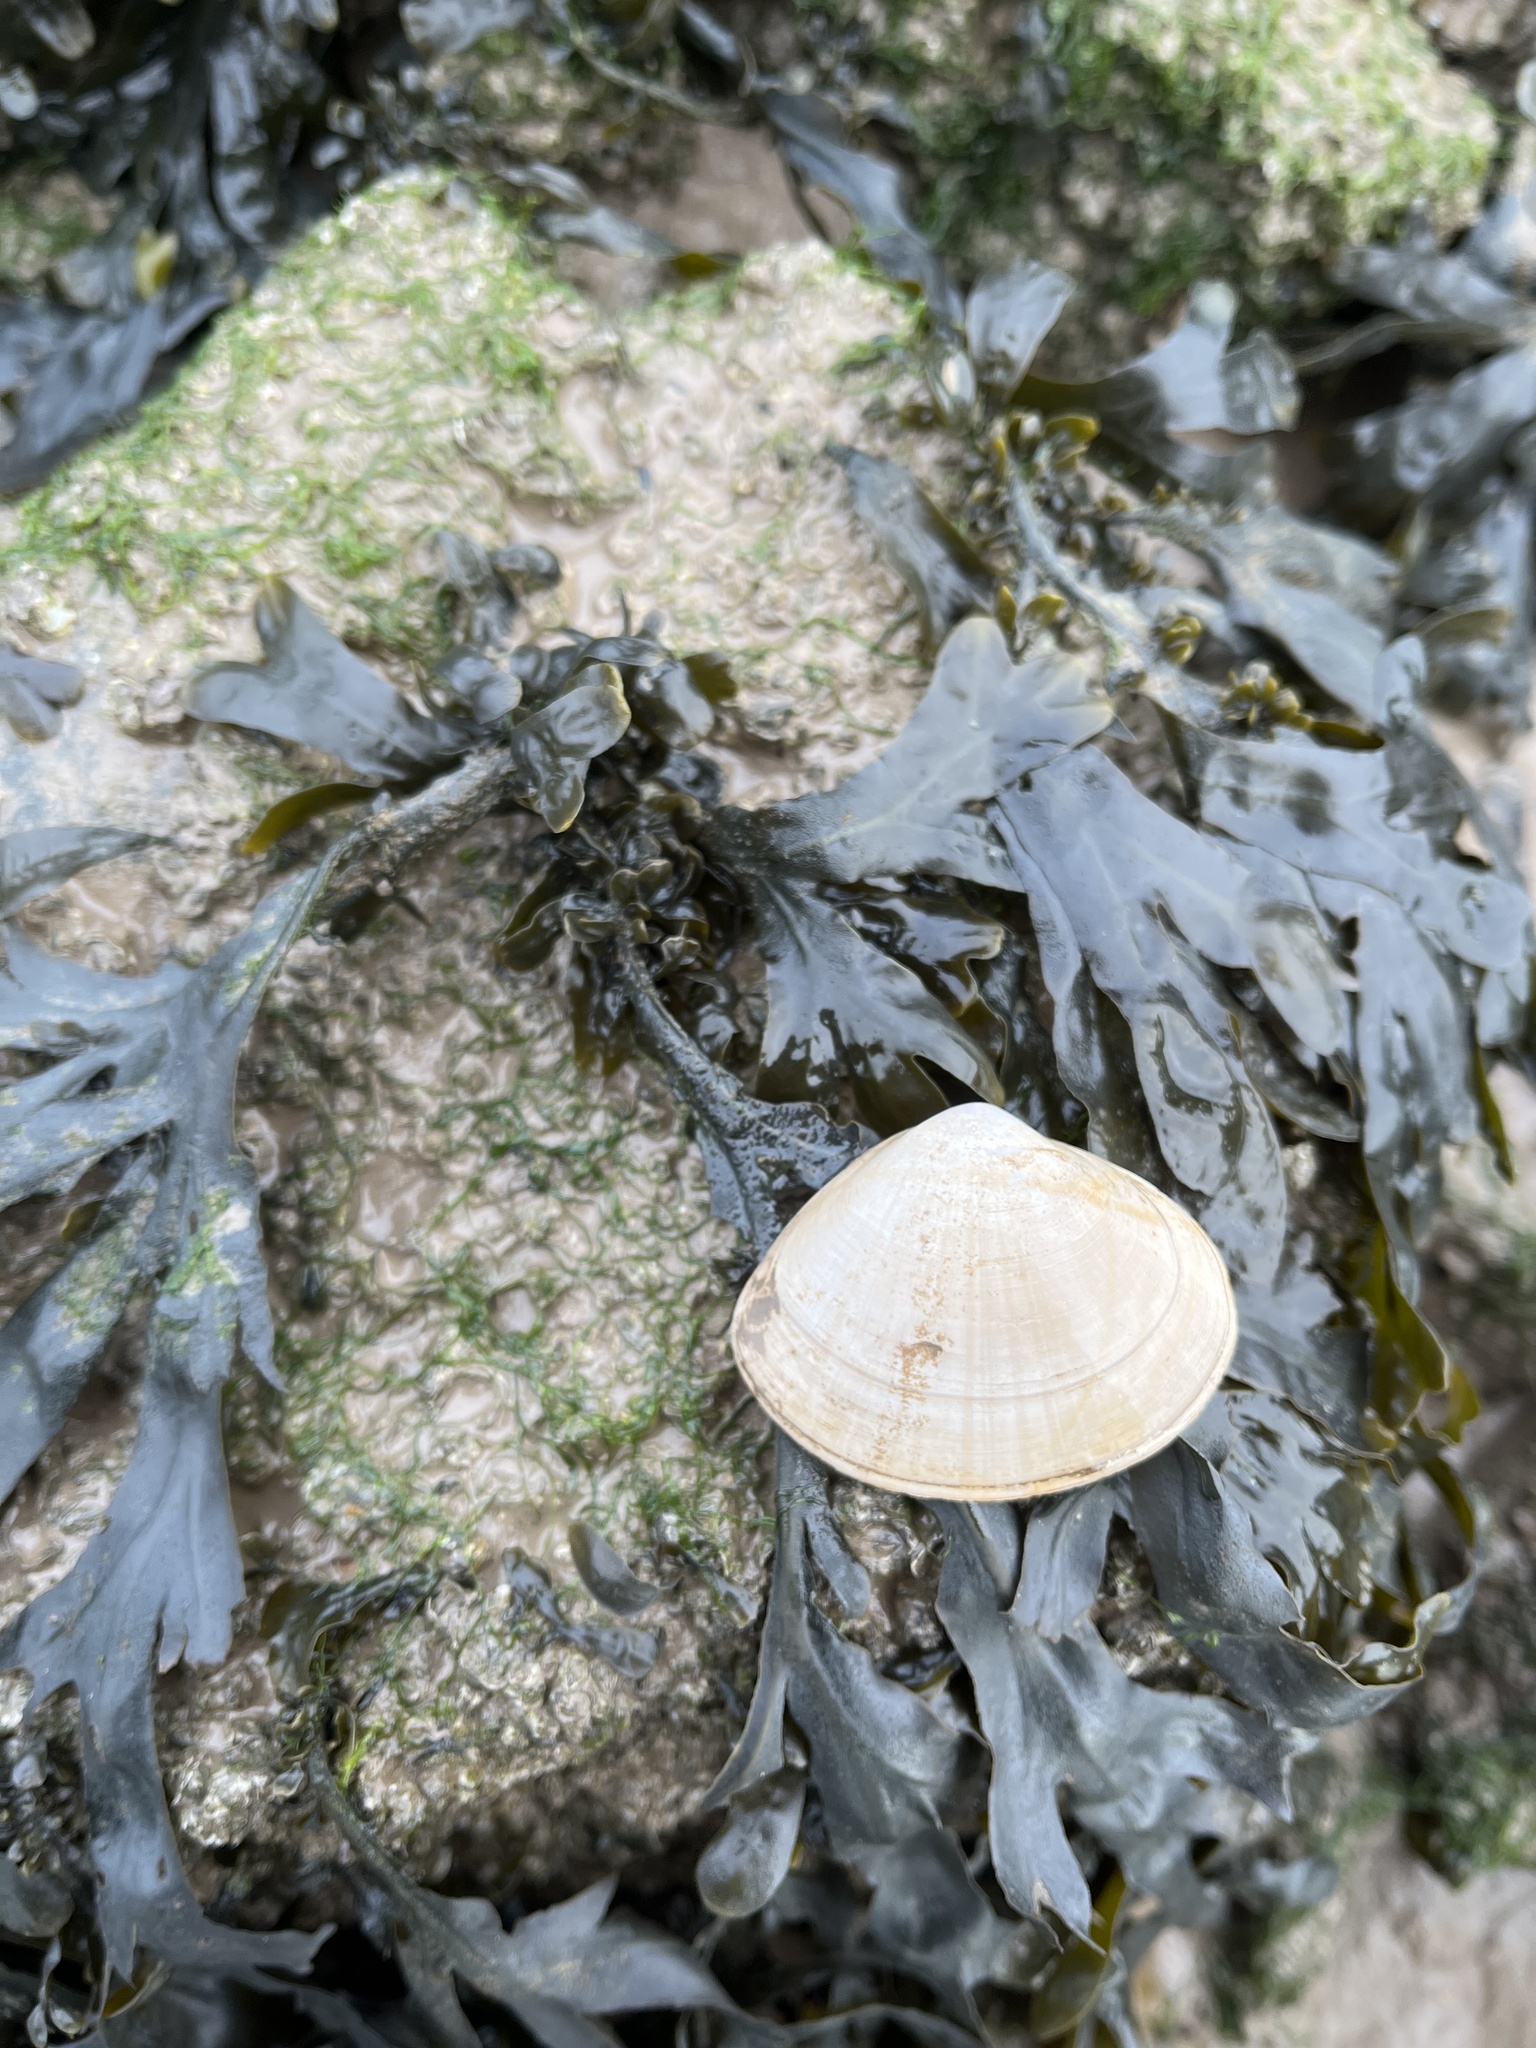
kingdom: Animalia
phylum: Mollusca
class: Bivalvia
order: Venerida
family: Mactridae
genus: Mactra
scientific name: Mactra stultorum
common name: Rayed trough shell
